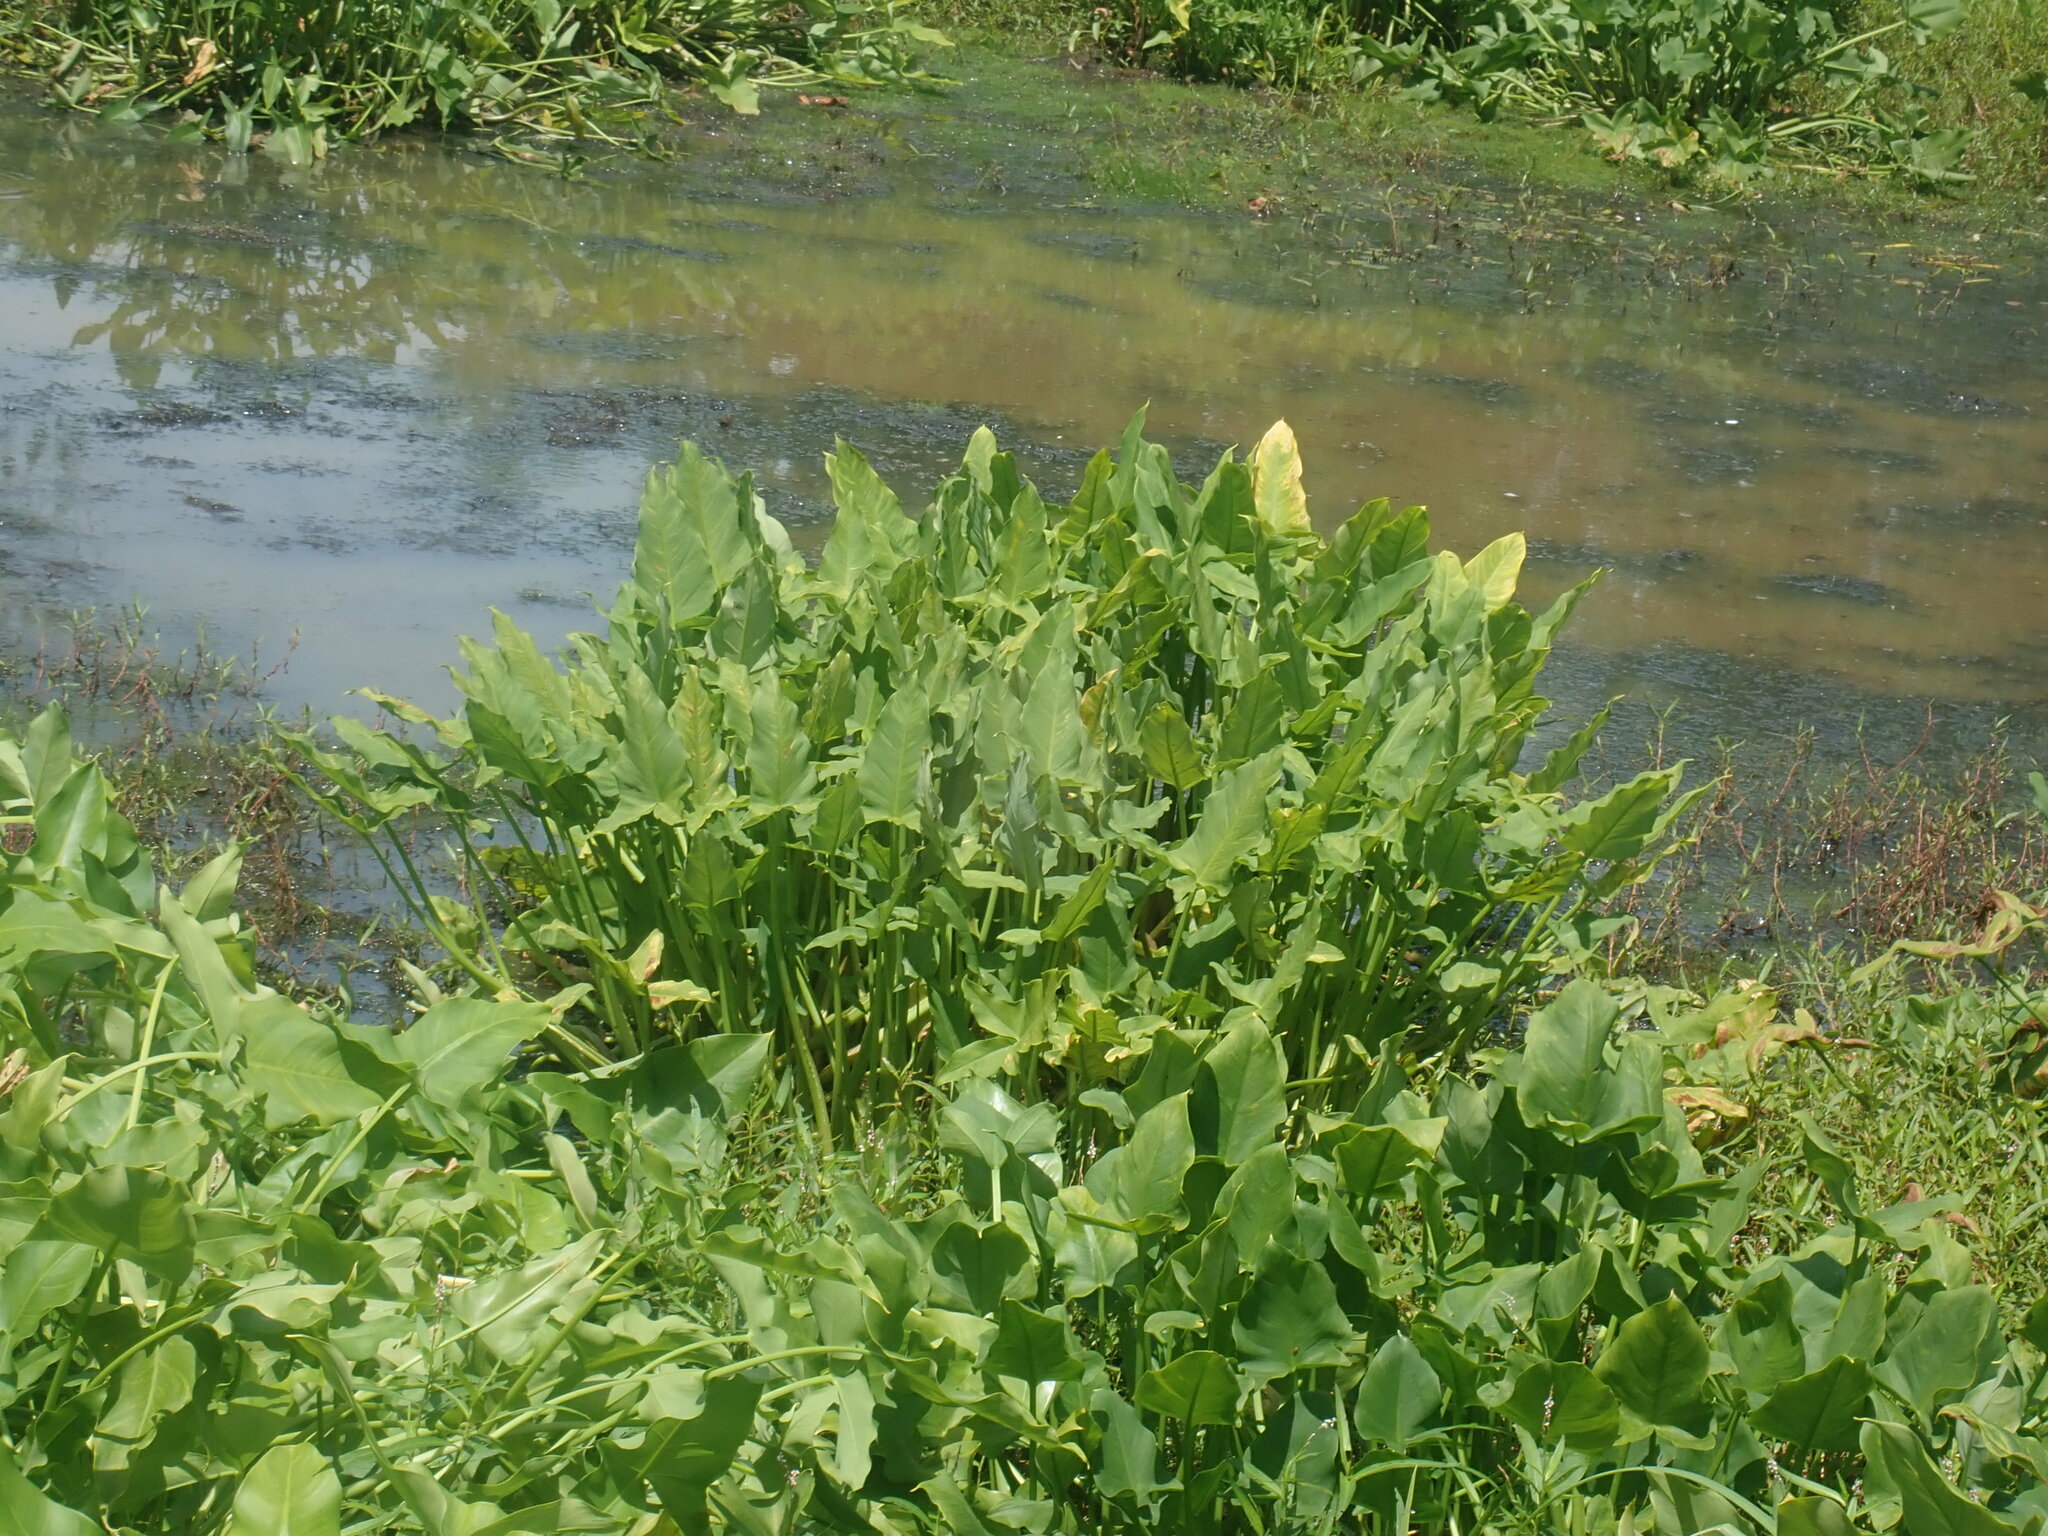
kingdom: Plantae
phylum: Tracheophyta
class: Liliopsida
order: Alismatales
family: Araceae
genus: Peltandra
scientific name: Peltandra virginica
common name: Arrow arum
